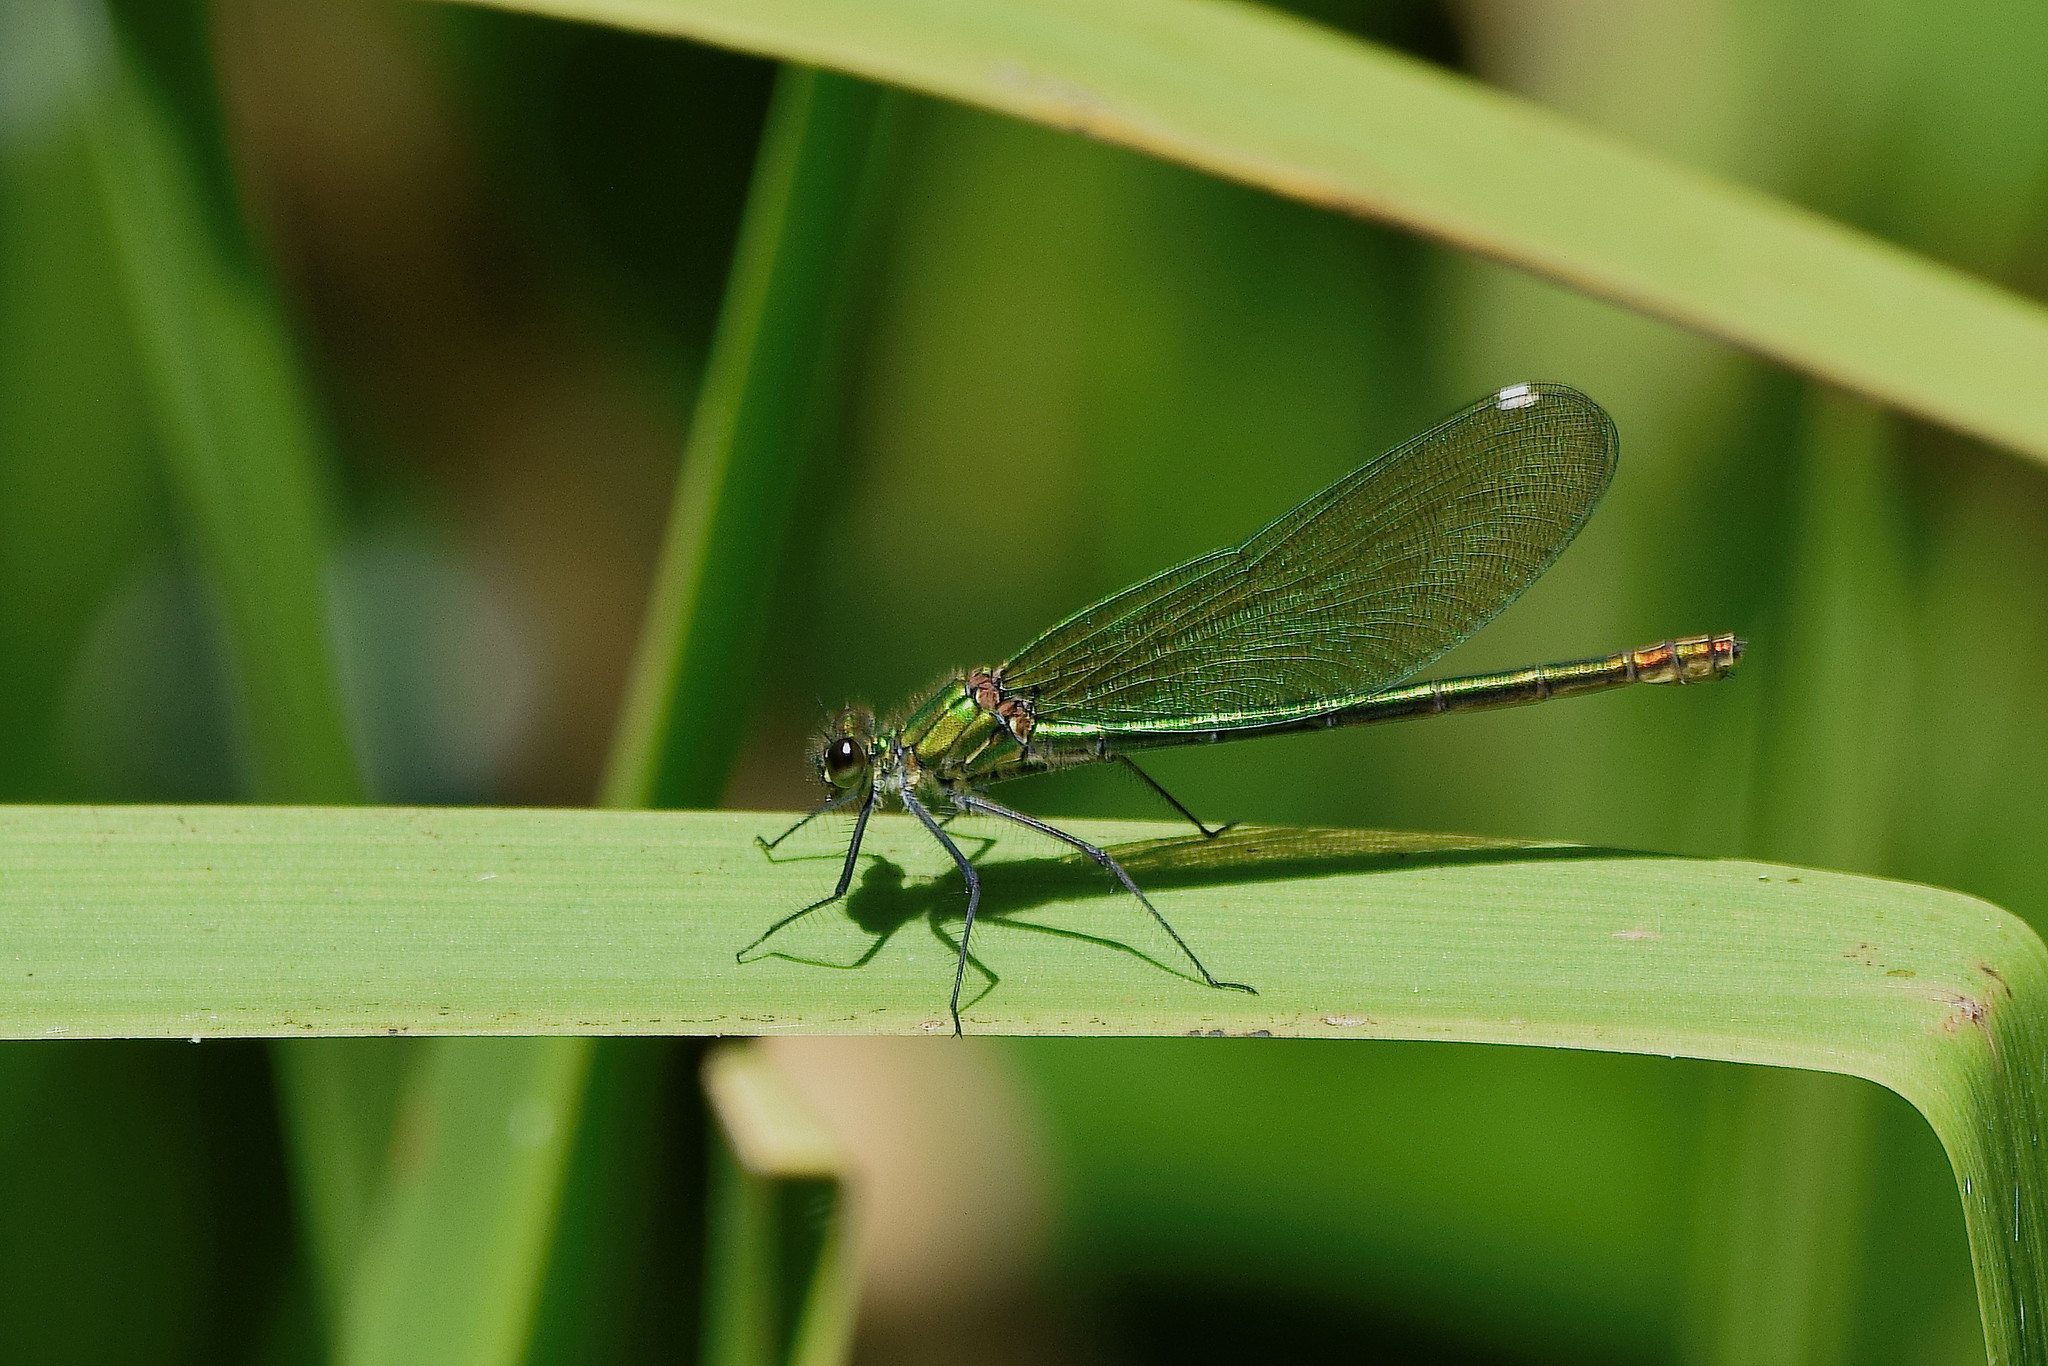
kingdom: Animalia
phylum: Arthropoda
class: Insecta
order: Odonata
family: Calopterygidae
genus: Calopteryx
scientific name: Calopteryx splendens
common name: Banded demoiselle
